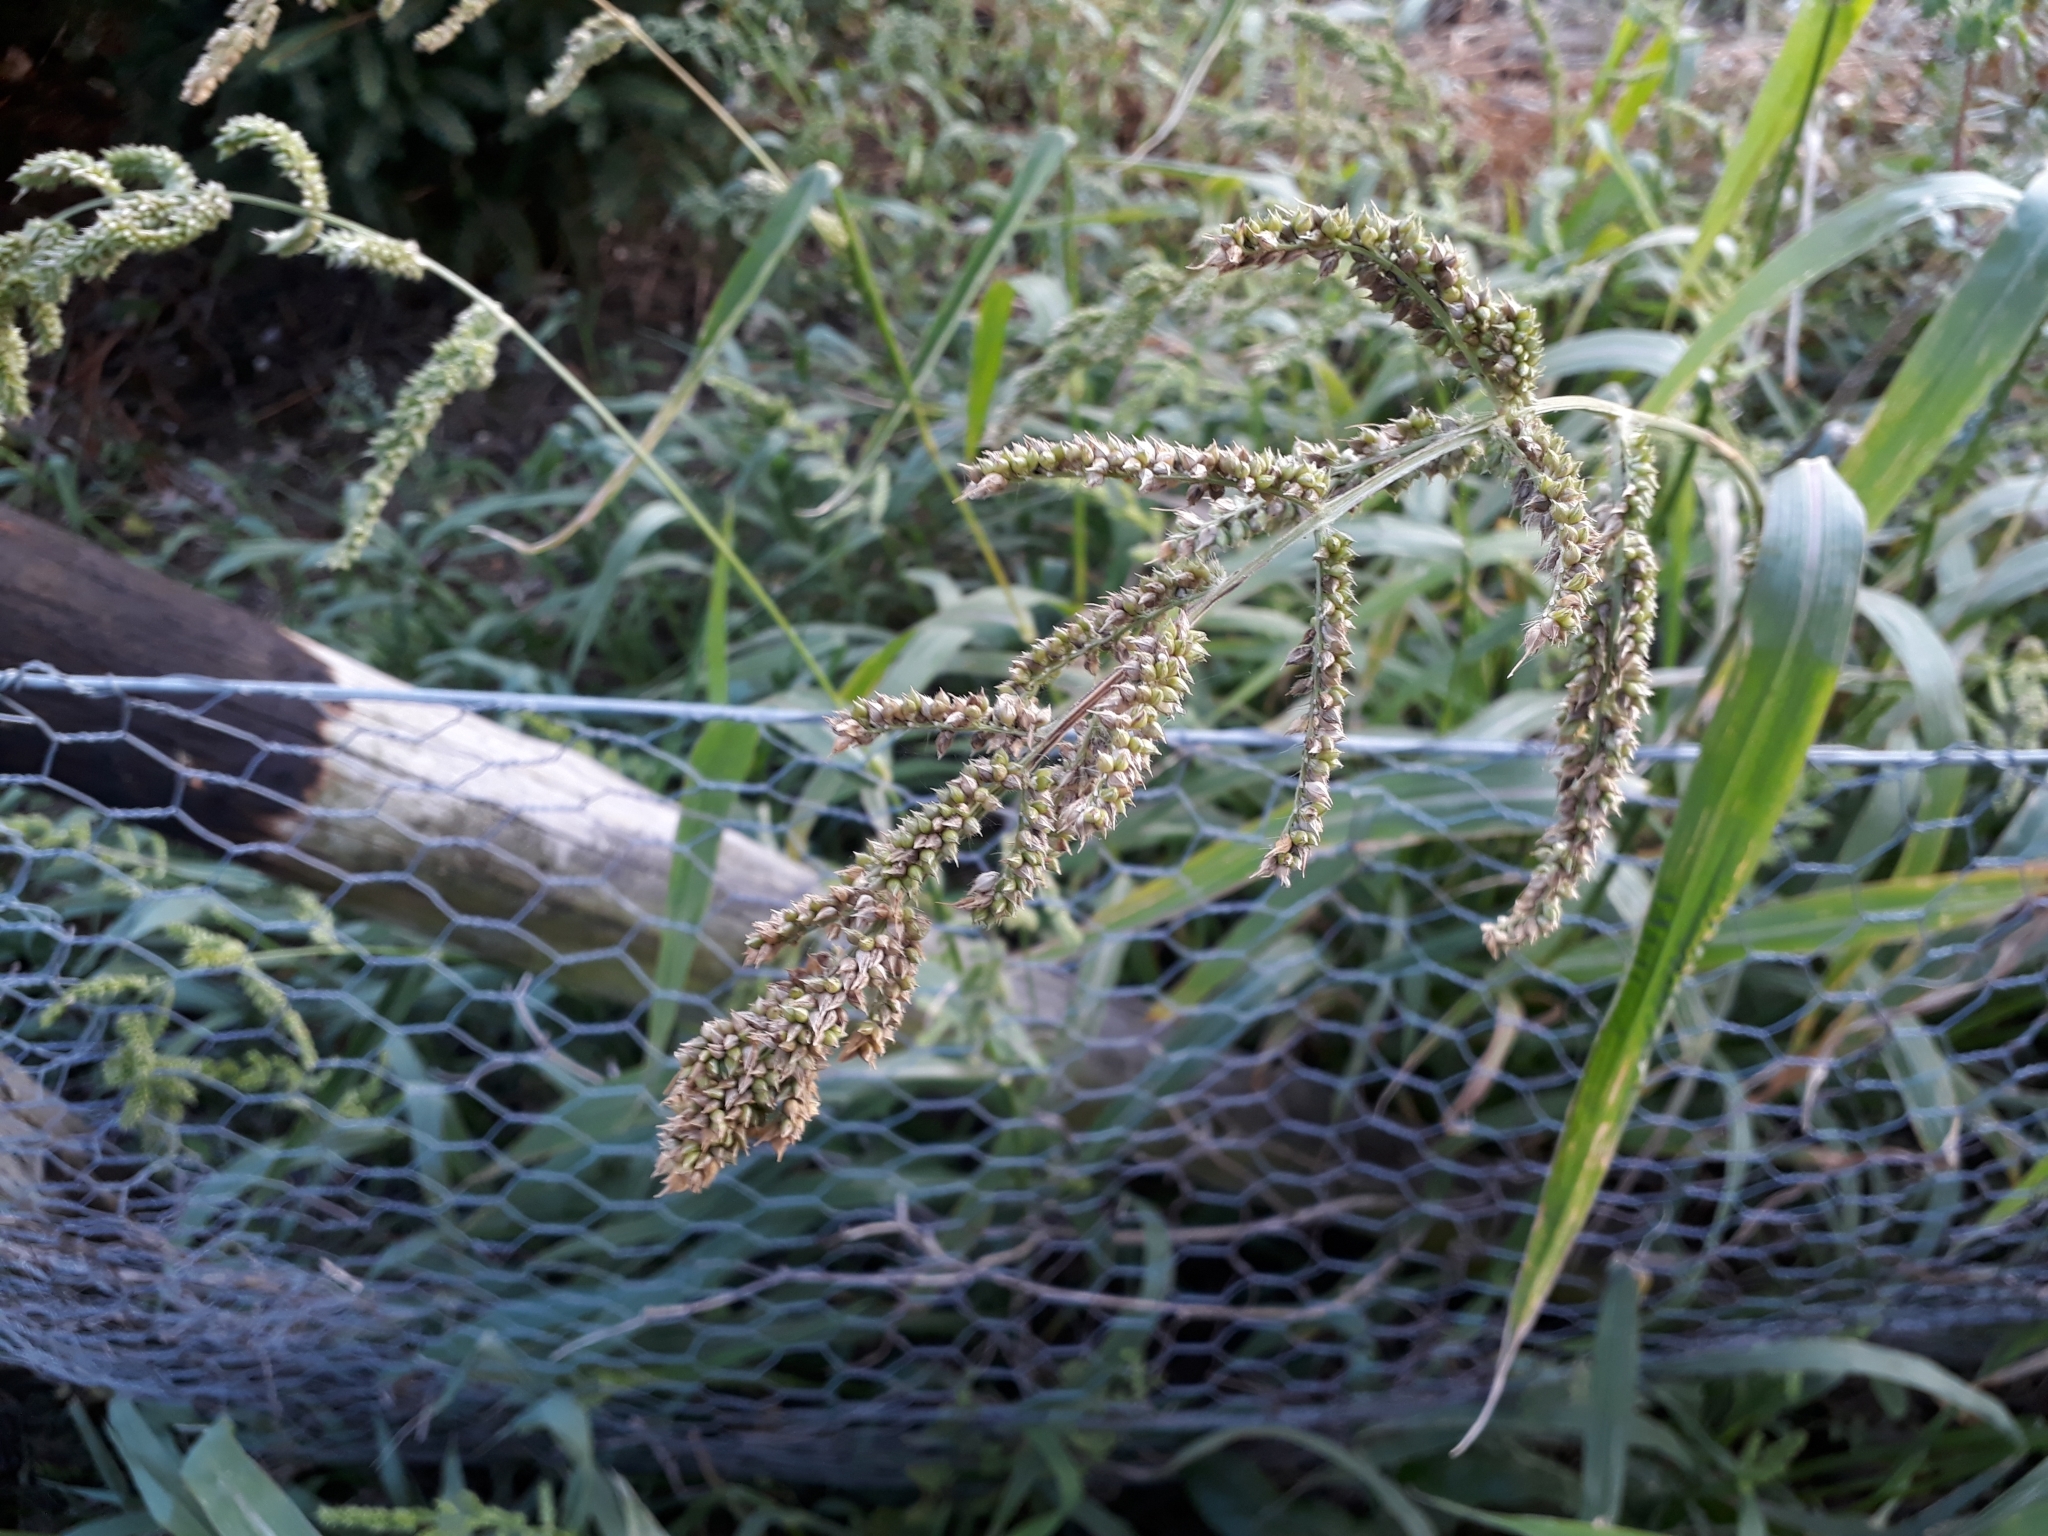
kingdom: Plantae
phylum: Tracheophyta
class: Liliopsida
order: Poales
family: Poaceae
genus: Echinochloa
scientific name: Echinochloa crus-galli
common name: Cockspur
